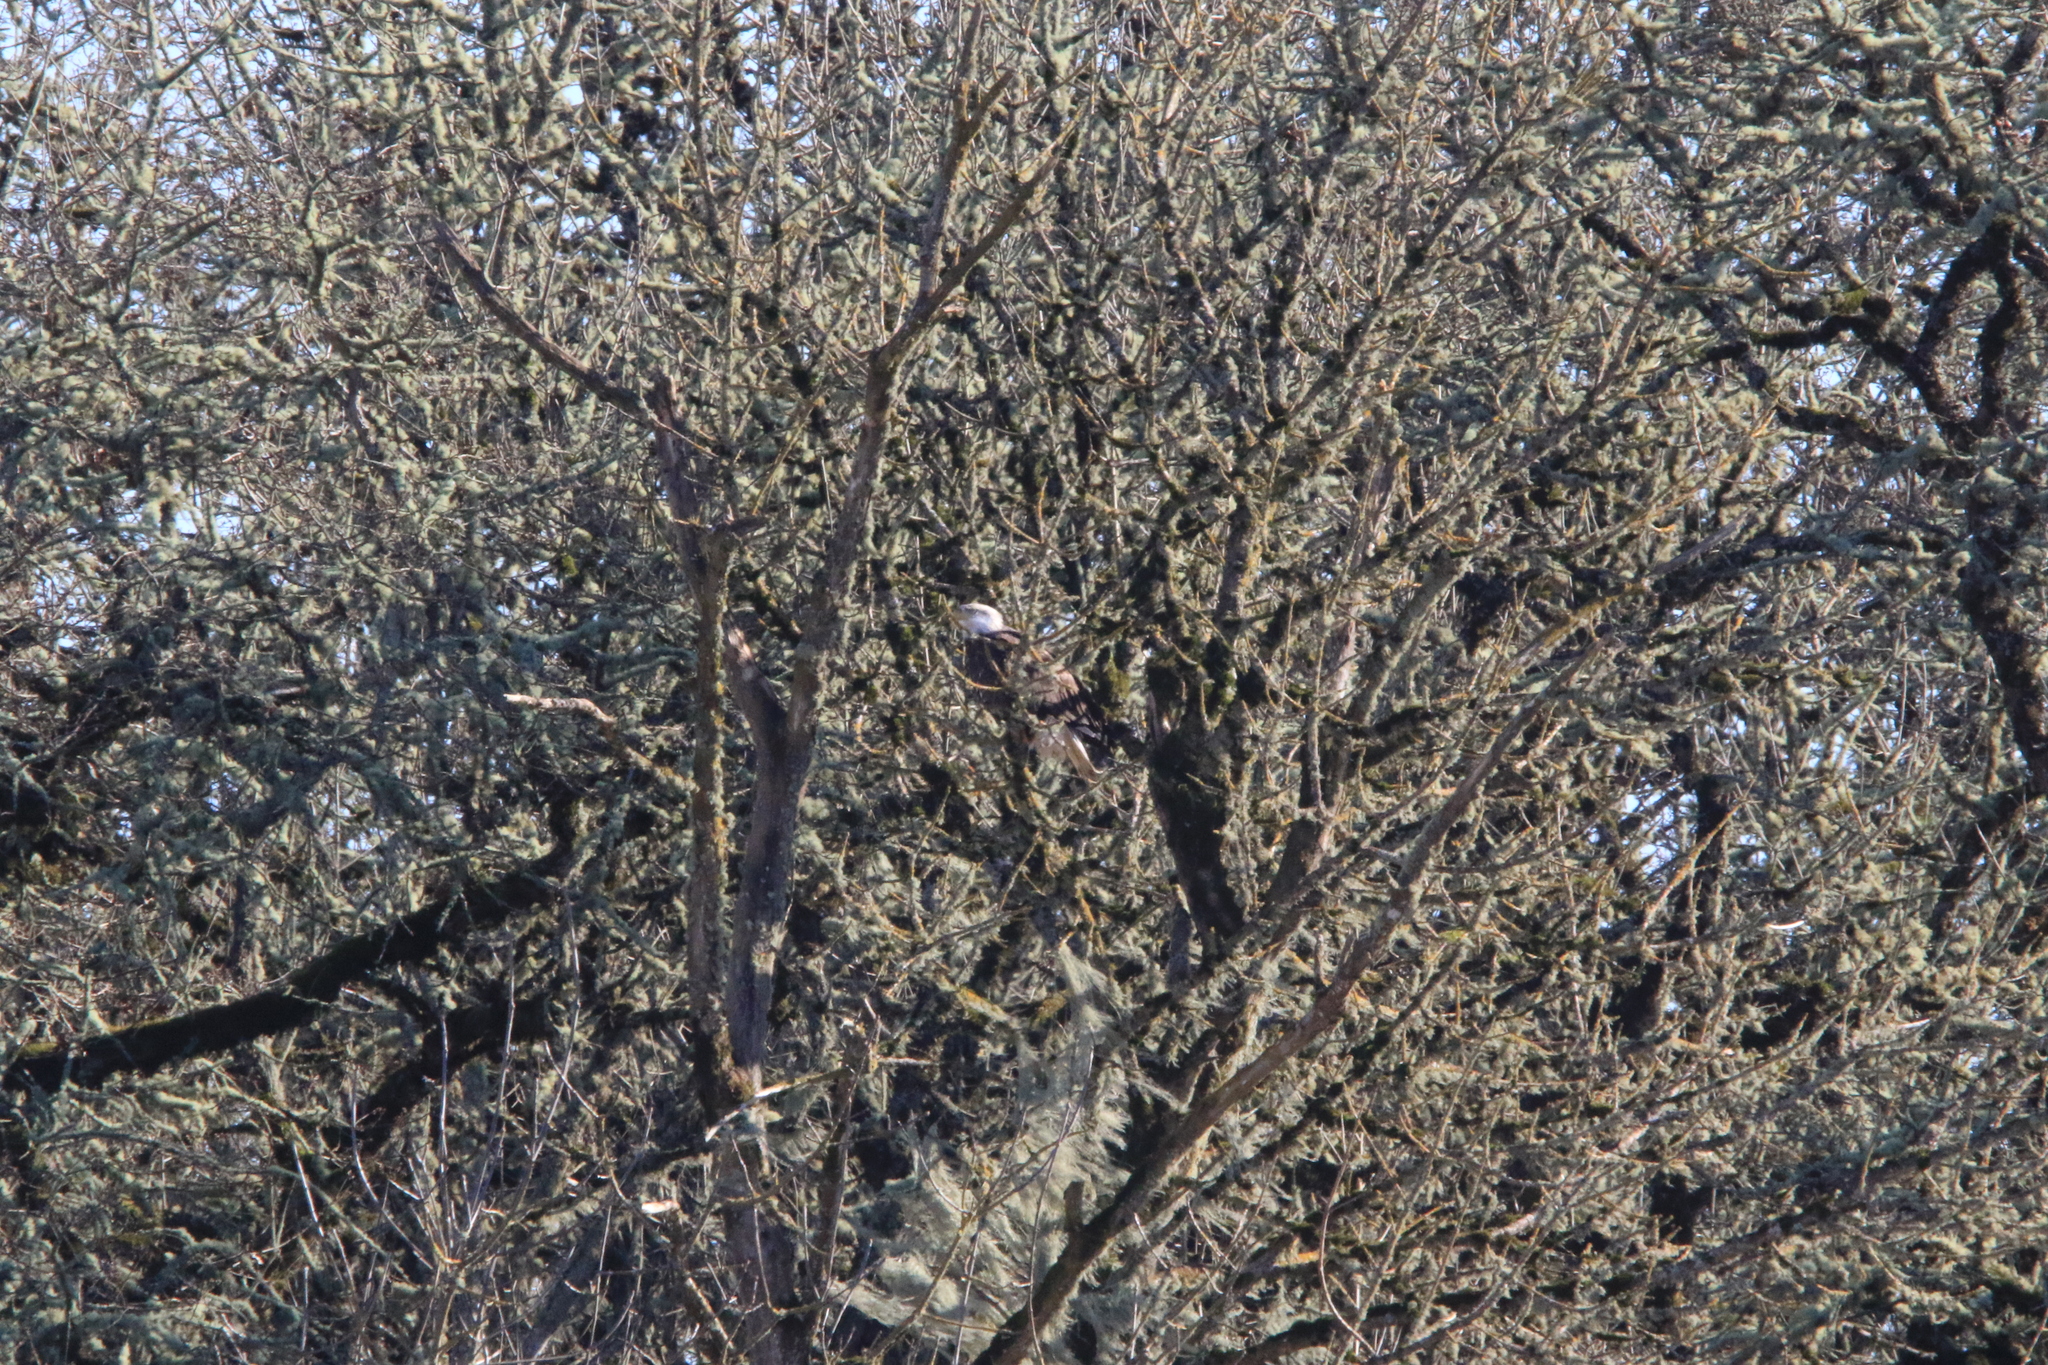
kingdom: Animalia
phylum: Chordata
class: Aves
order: Accipitriformes
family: Accipitridae
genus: Haliaeetus
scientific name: Haliaeetus leucocephalus
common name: Bald eagle
